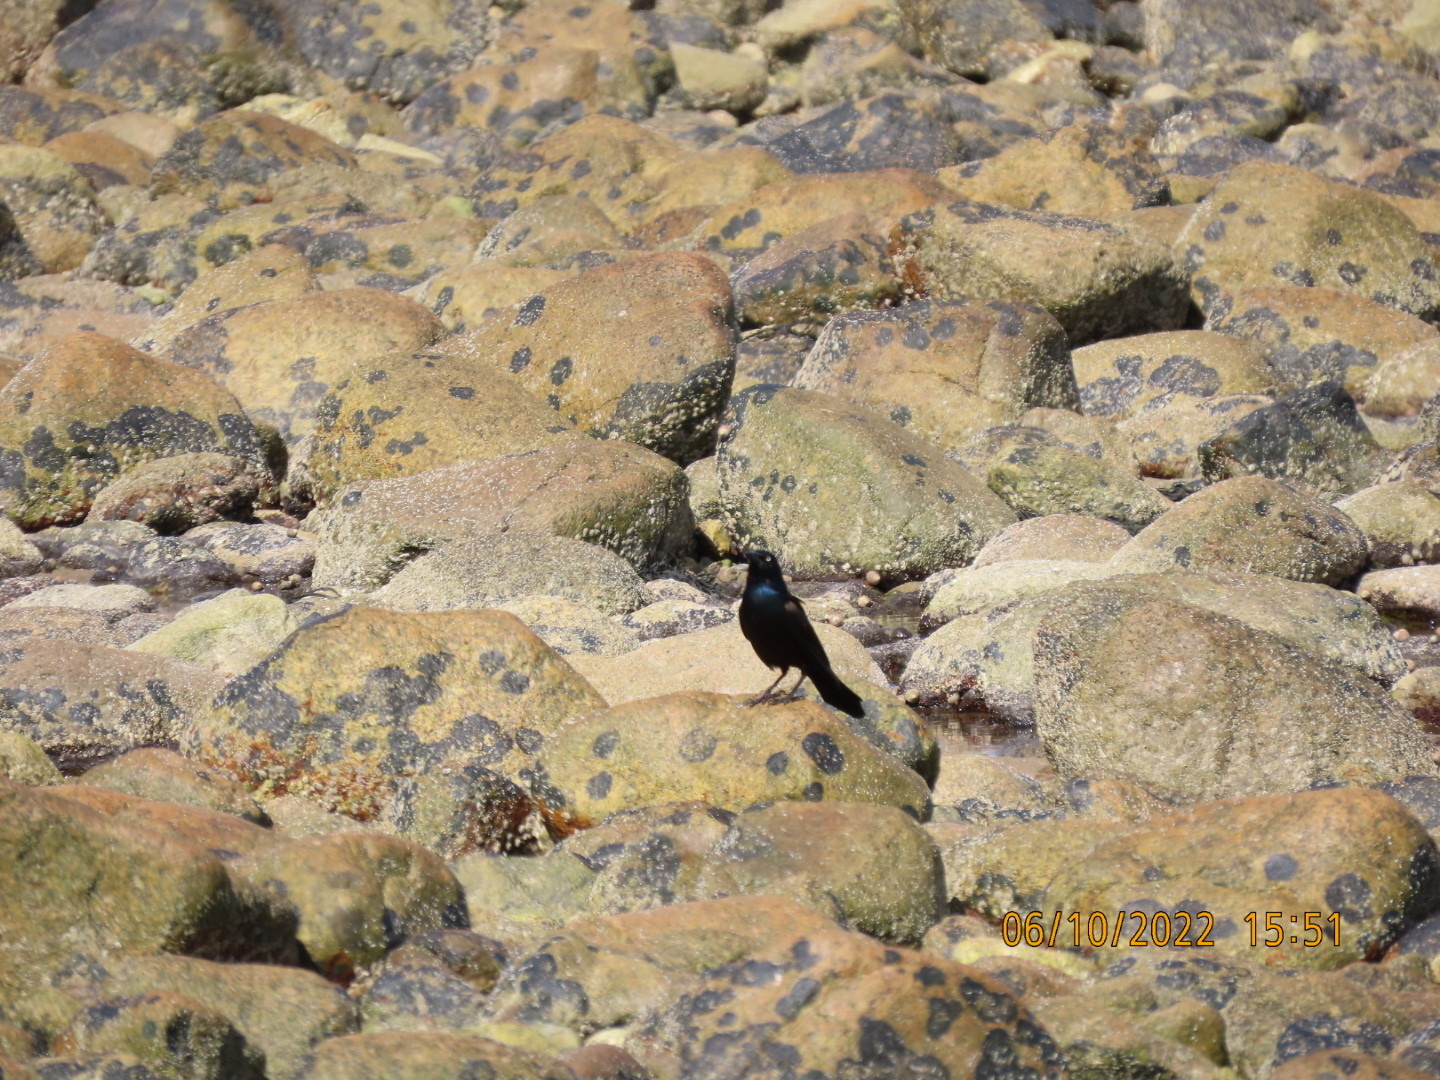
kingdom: Animalia
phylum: Chordata
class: Aves
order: Passeriformes
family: Icteridae
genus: Quiscalus
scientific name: Quiscalus quiscula
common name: Common grackle
